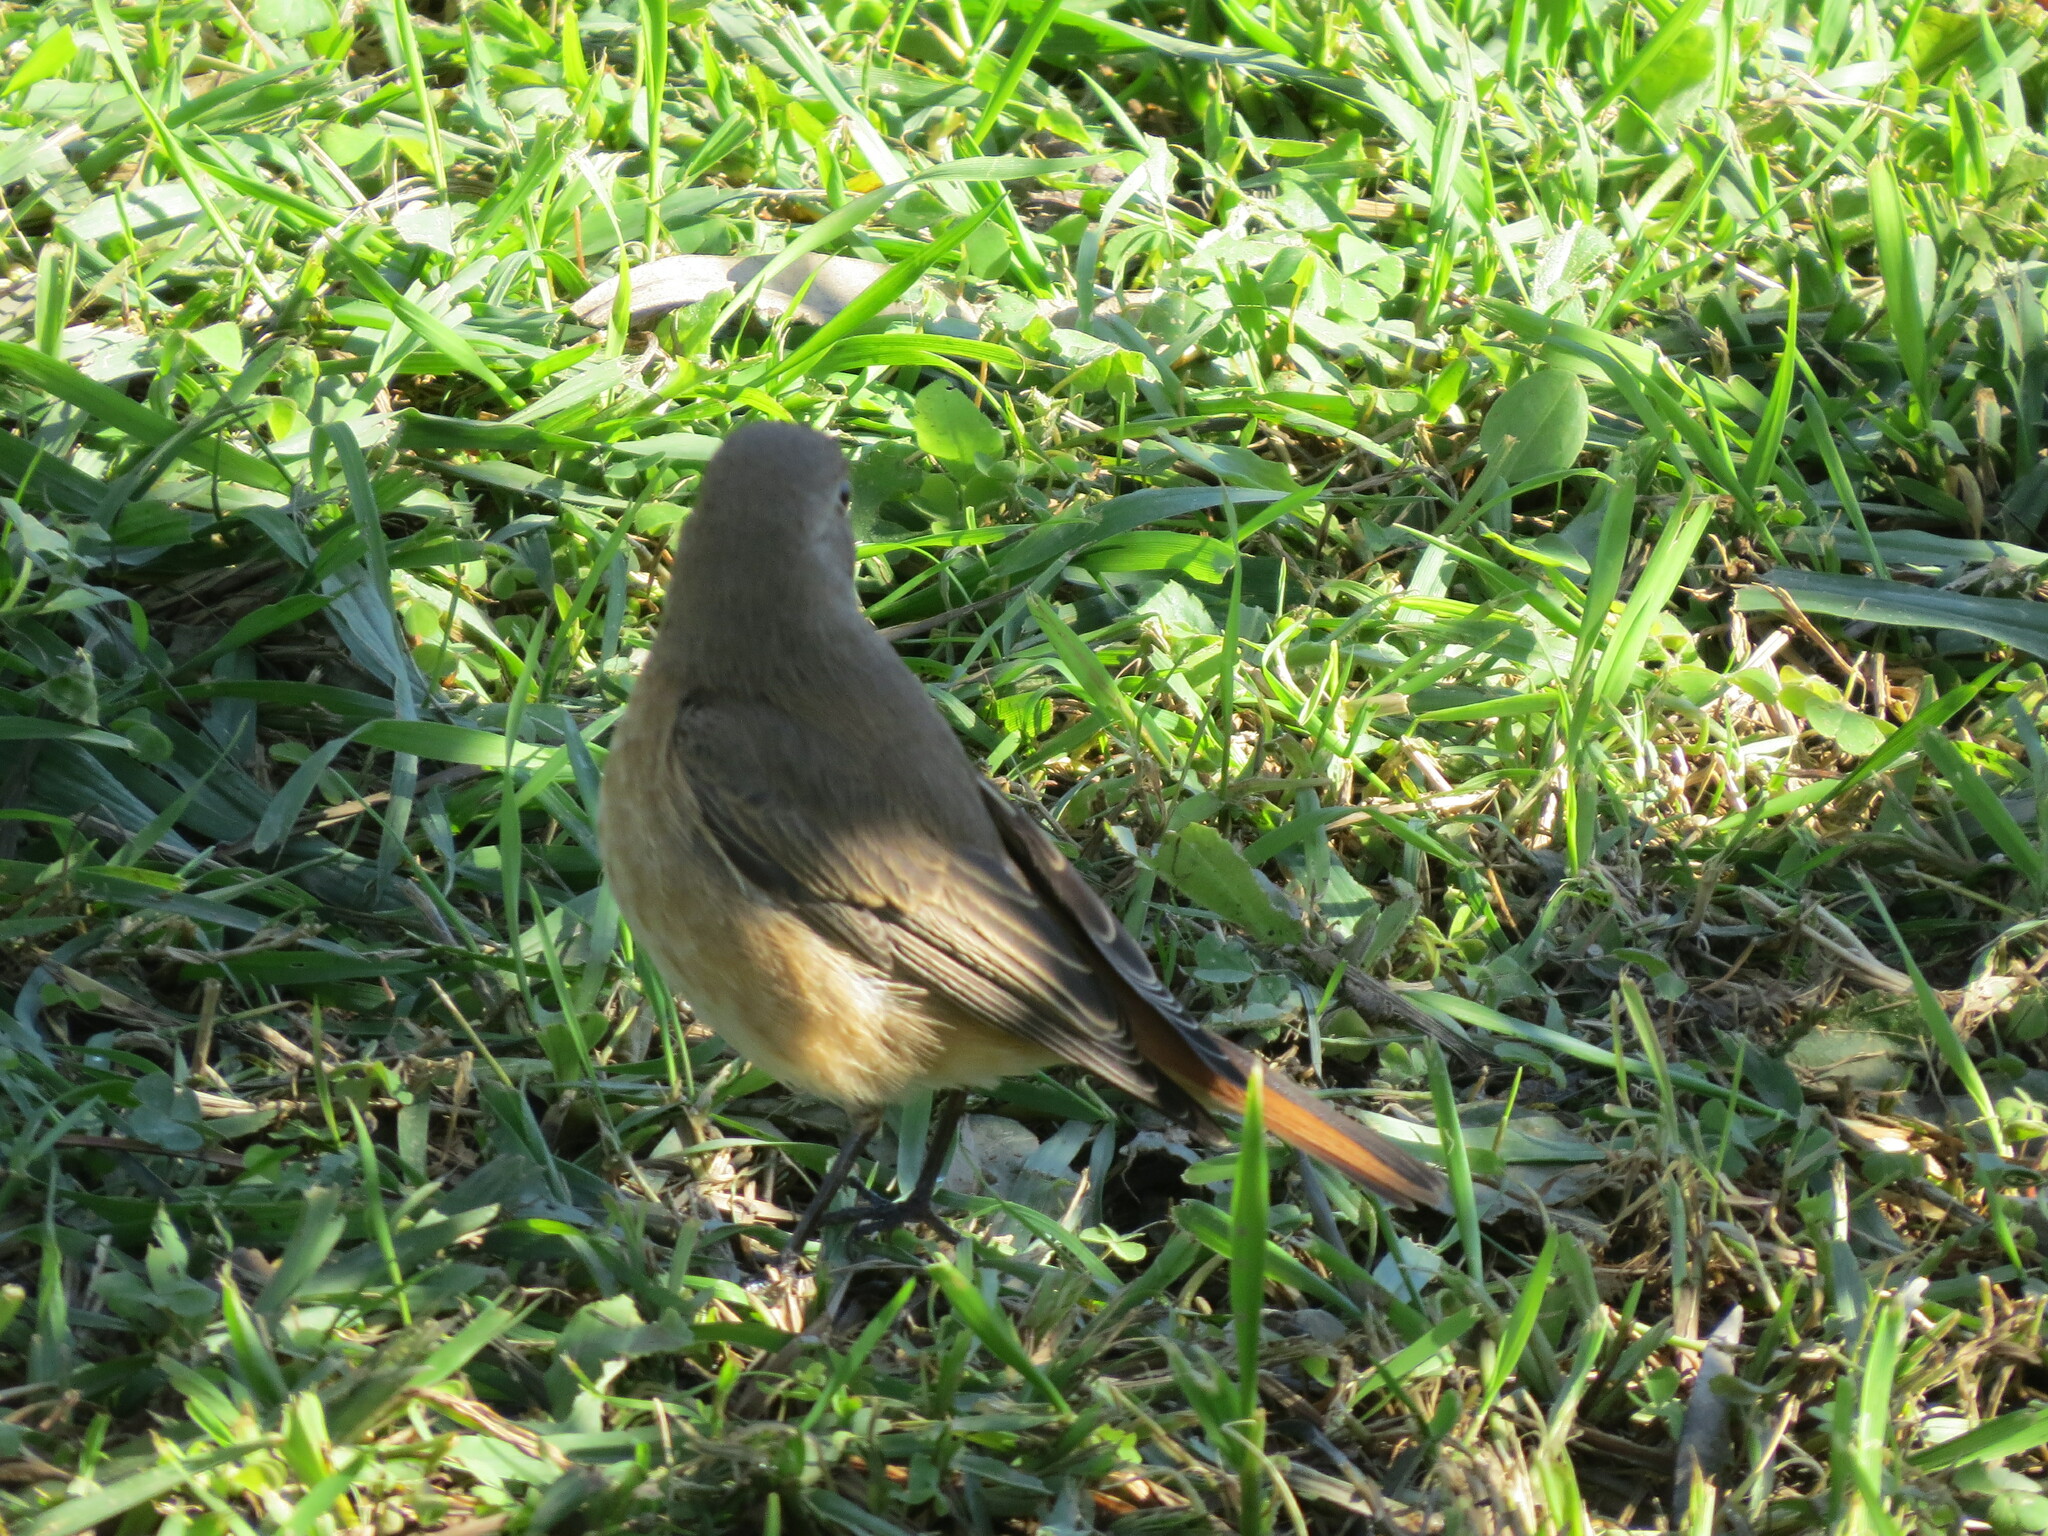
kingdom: Animalia
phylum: Chordata
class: Aves
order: Passeriformes
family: Muscicapidae
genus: Phoenicurus
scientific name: Phoenicurus phoenicurus
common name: Common redstart
